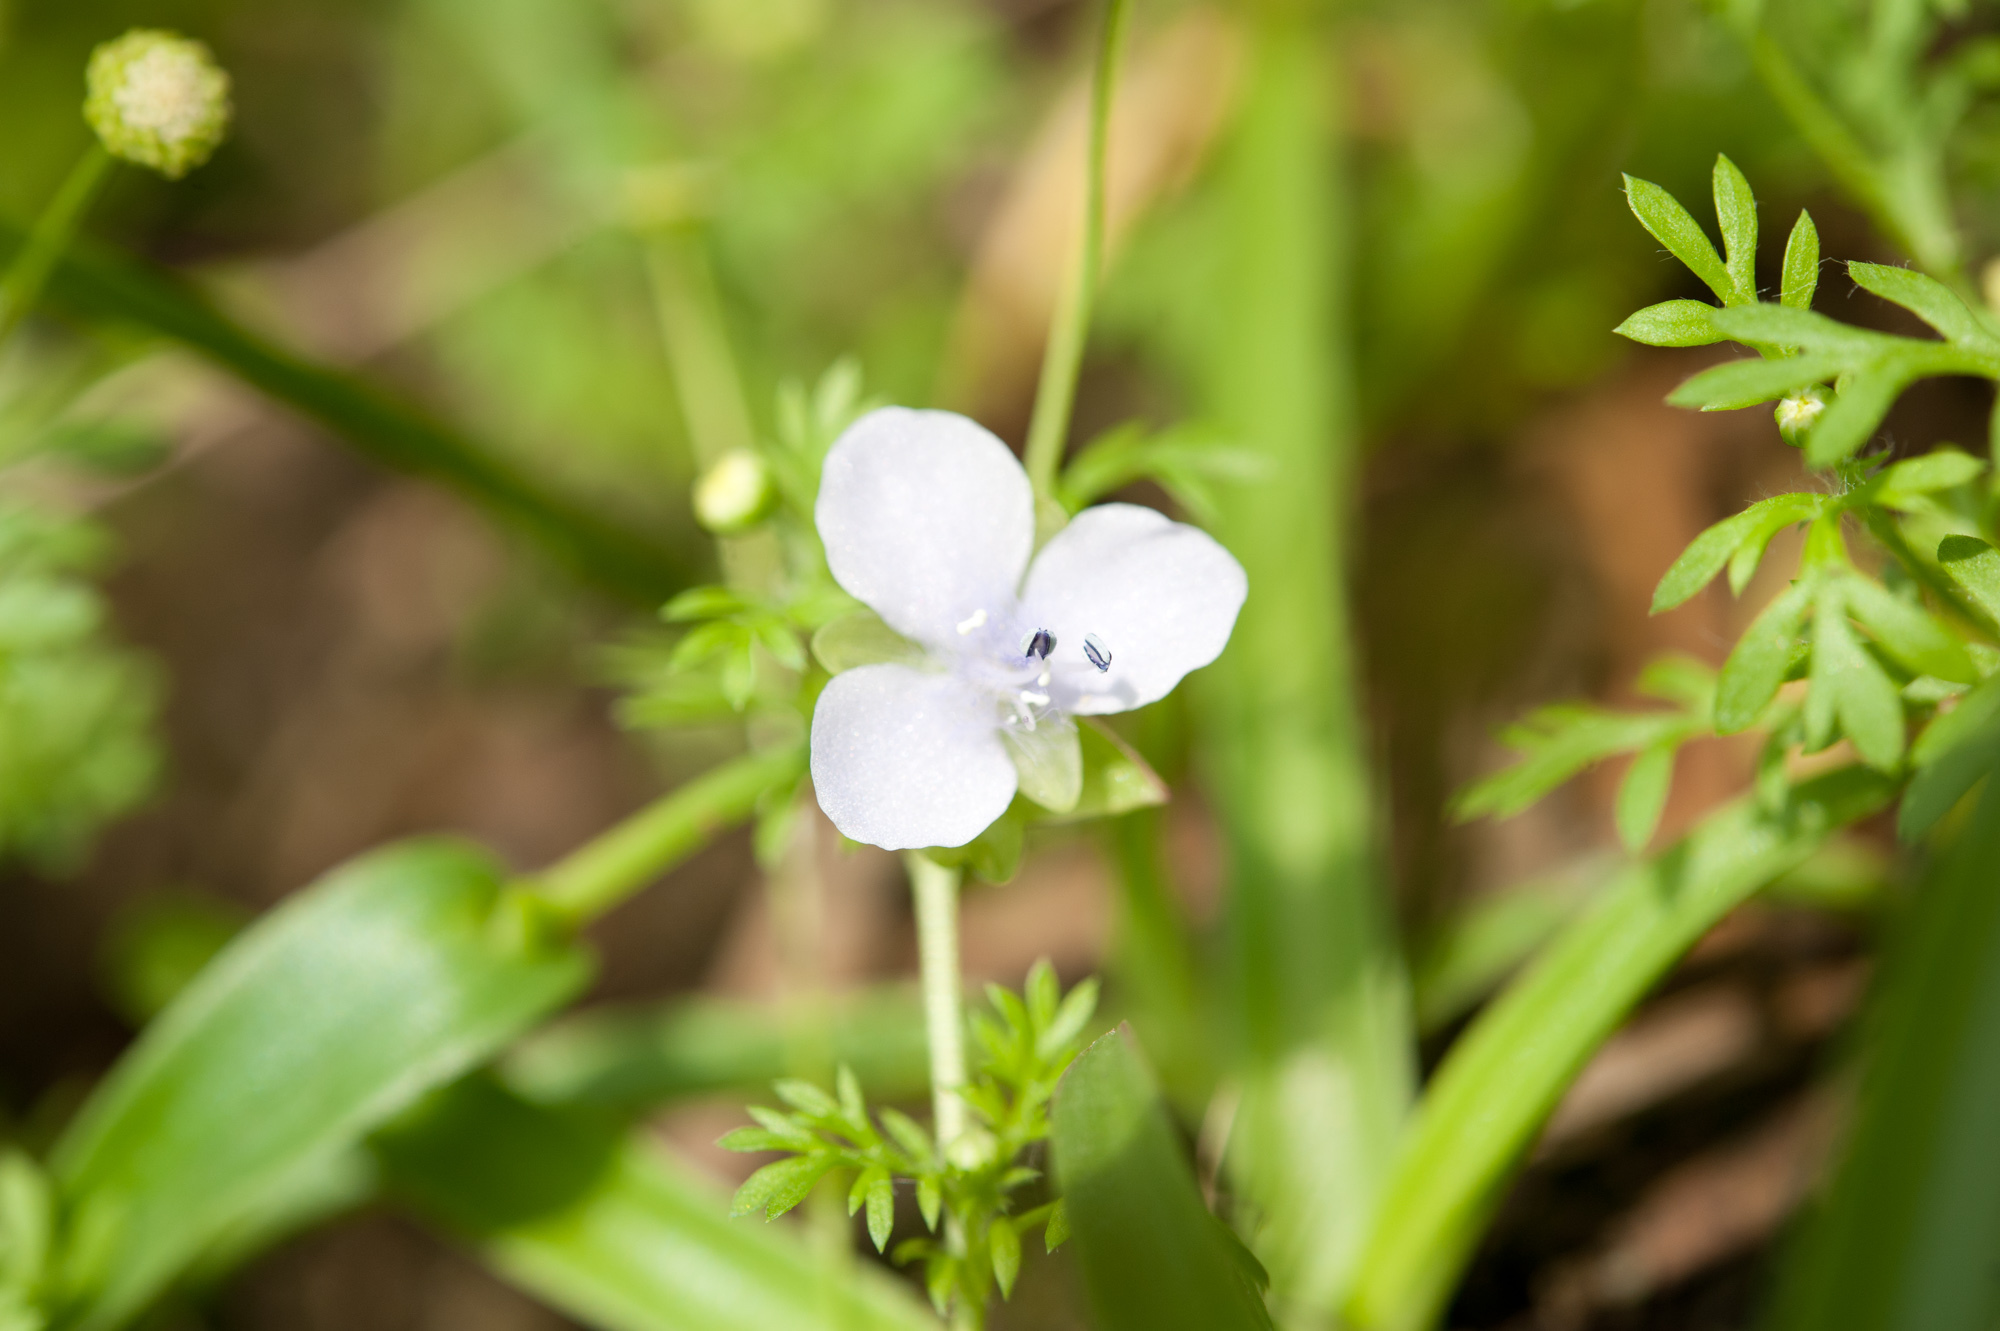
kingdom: Plantae
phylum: Tracheophyta
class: Liliopsida
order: Commelinales
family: Commelinaceae
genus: Murdannia
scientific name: Murdannia loriformis
